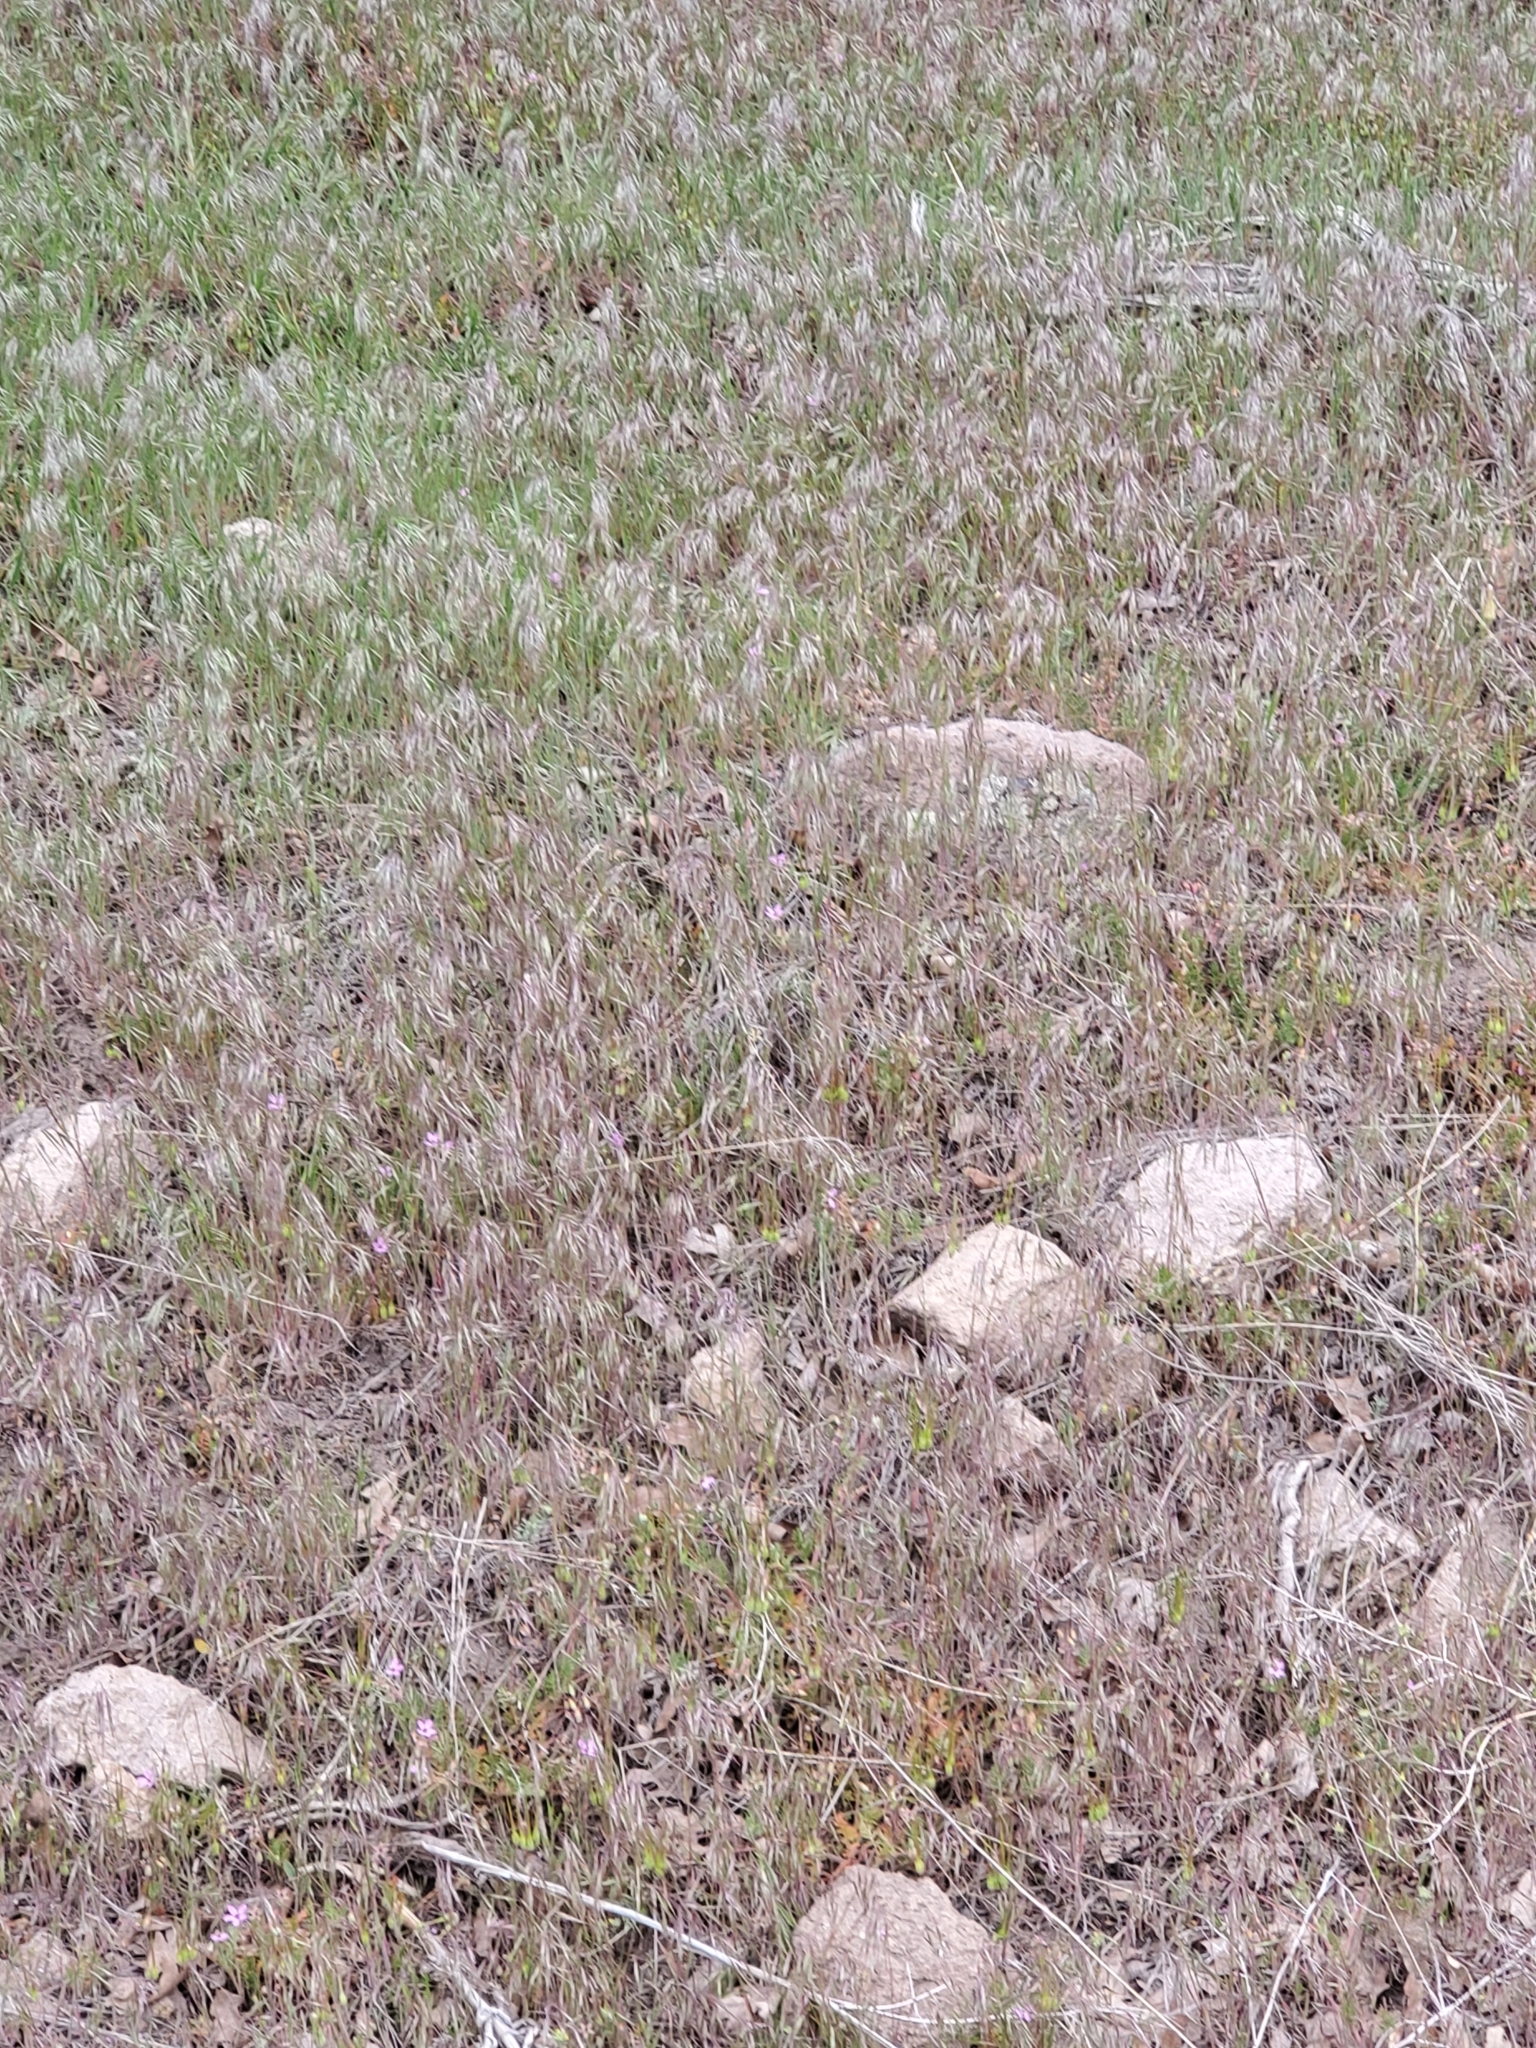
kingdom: Plantae
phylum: Tracheophyta
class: Liliopsida
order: Poales
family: Poaceae
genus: Bromus
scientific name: Bromus tectorum
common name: Cheatgrass
